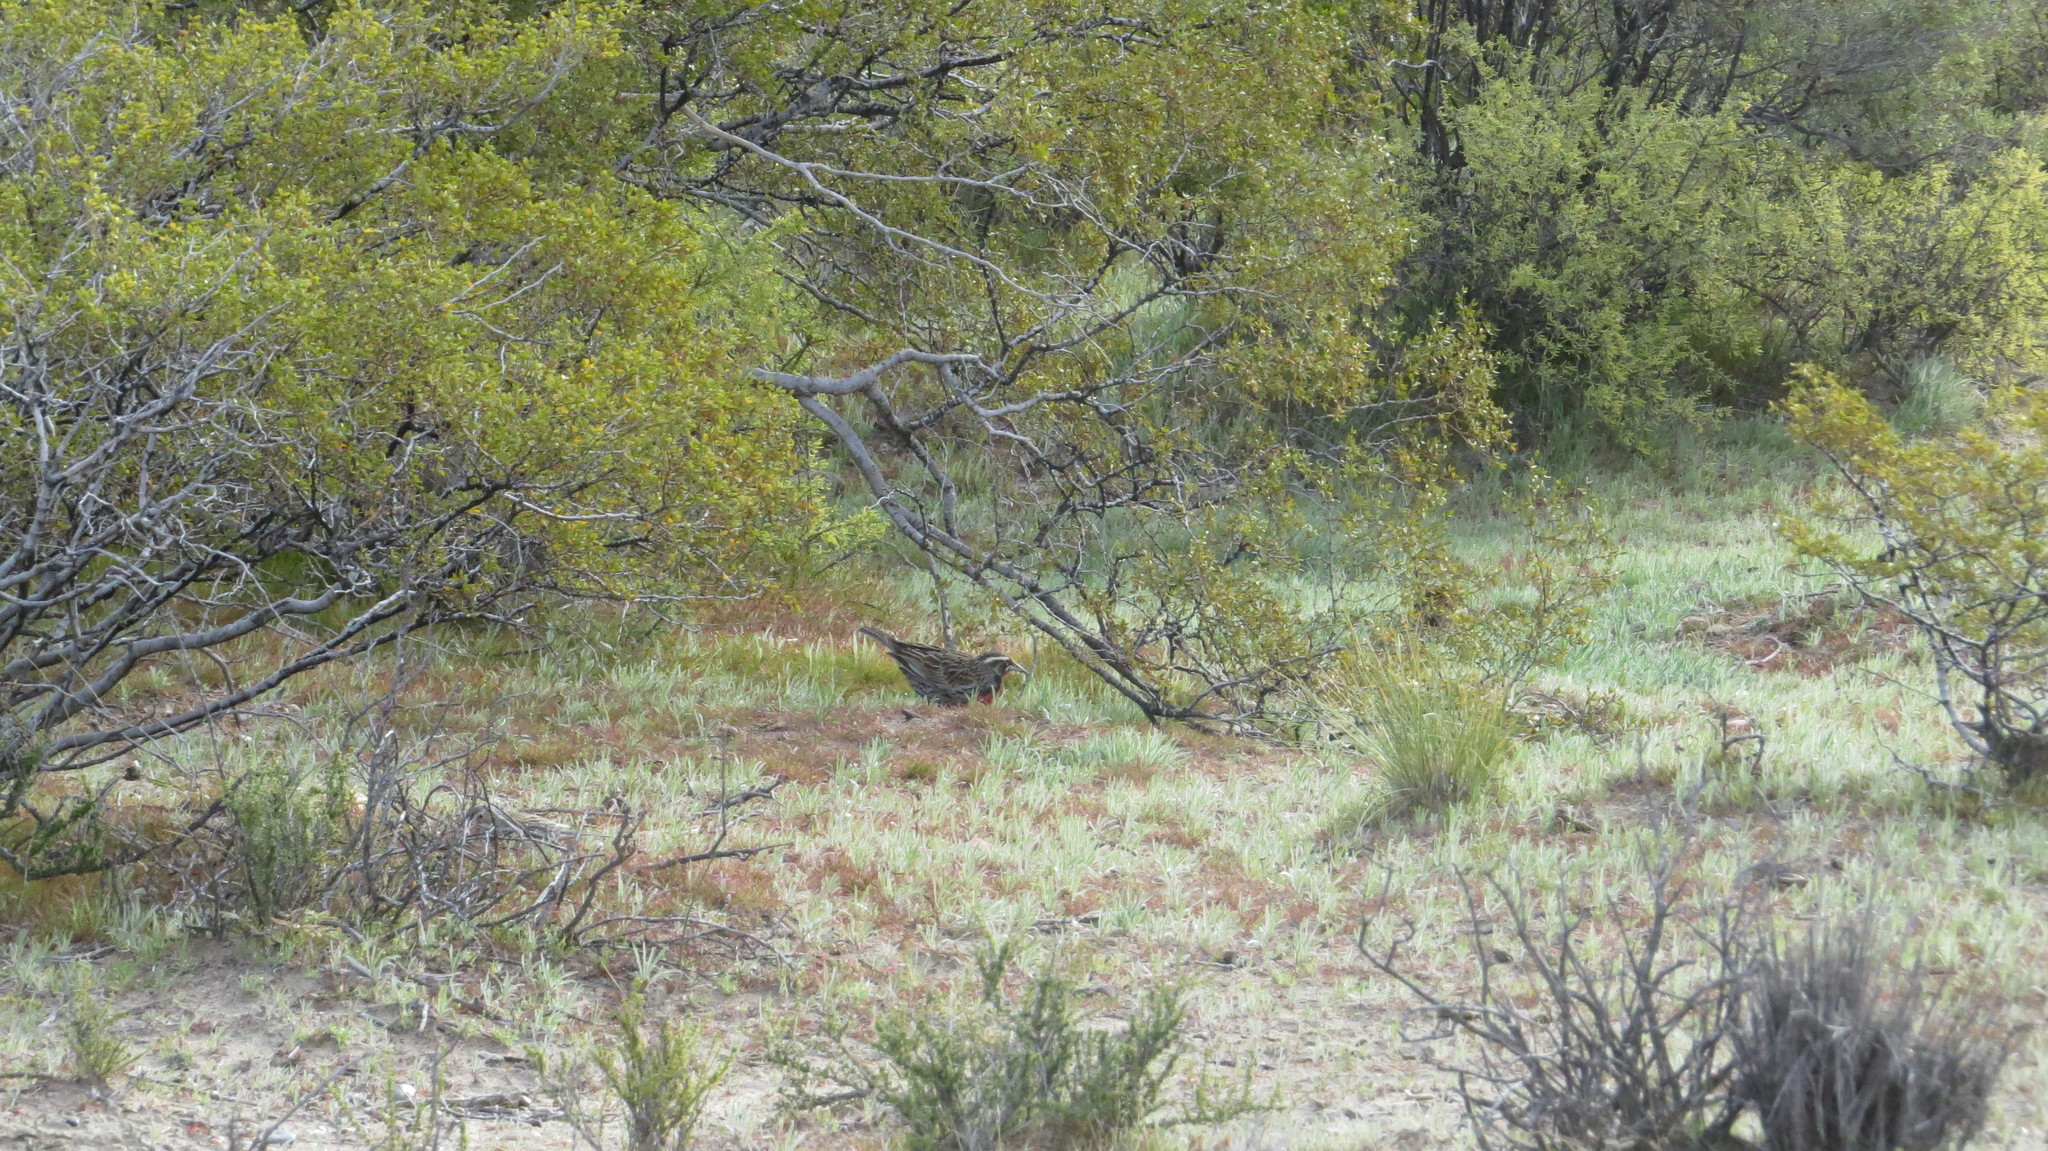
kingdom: Animalia
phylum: Chordata
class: Aves
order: Passeriformes
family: Icteridae
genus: Sturnella
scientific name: Sturnella loyca
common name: Long-tailed meadowlark
